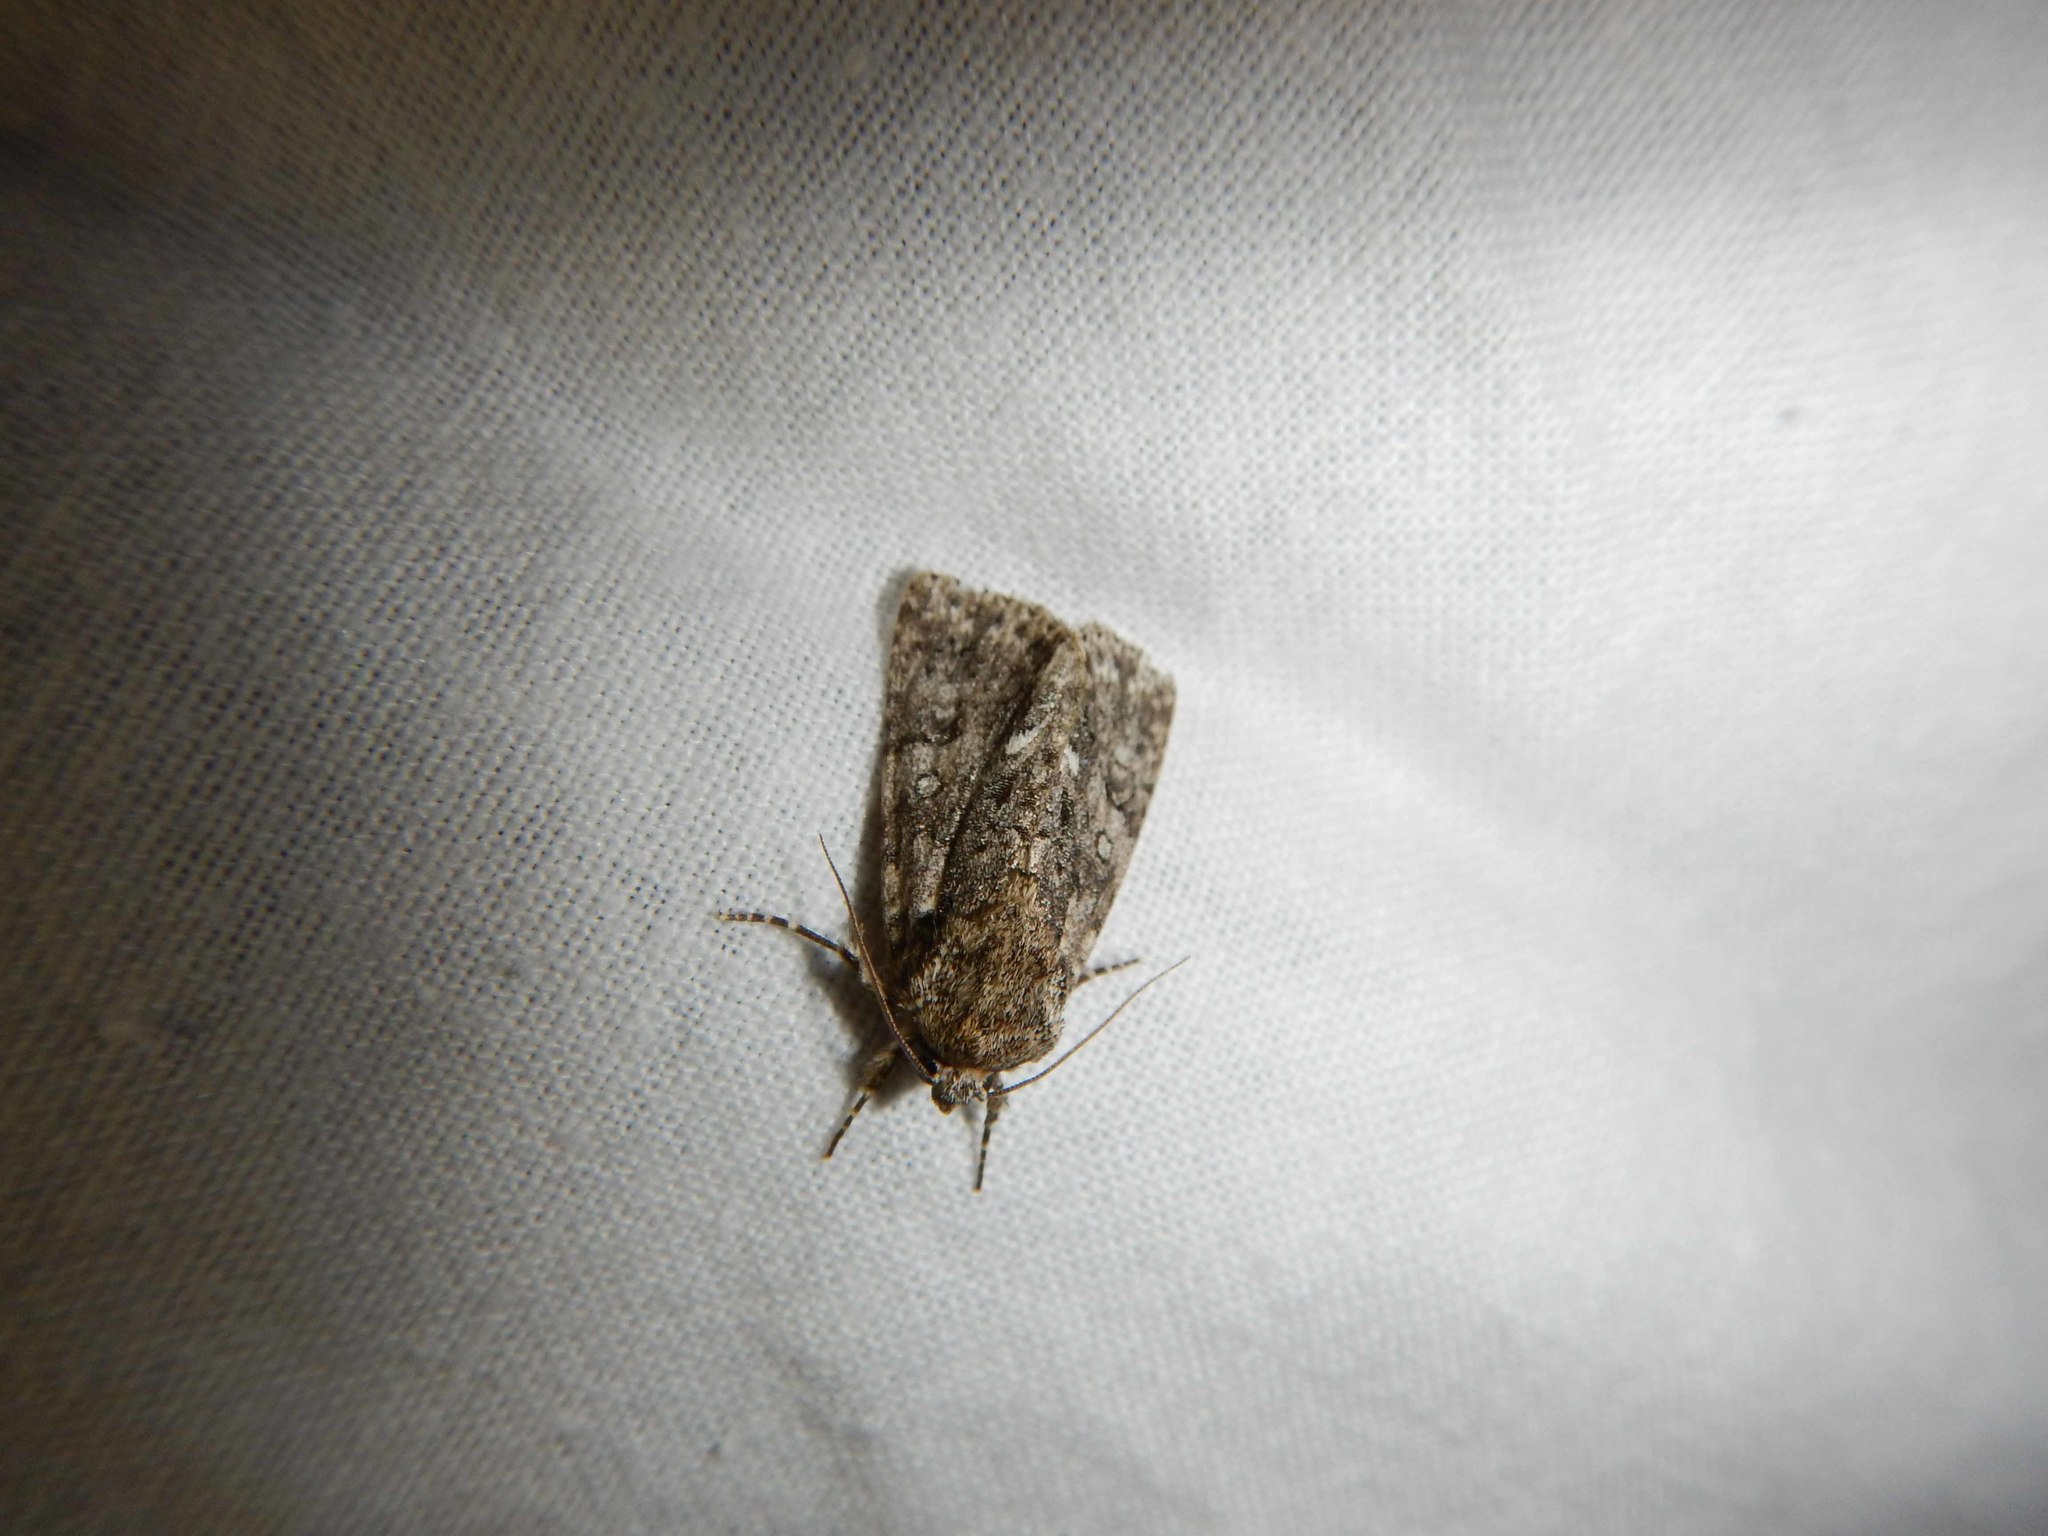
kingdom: Animalia
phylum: Arthropoda
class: Insecta
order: Lepidoptera
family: Noctuidae
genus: Acronicta
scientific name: Acronicta rumicis
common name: Knot grass
